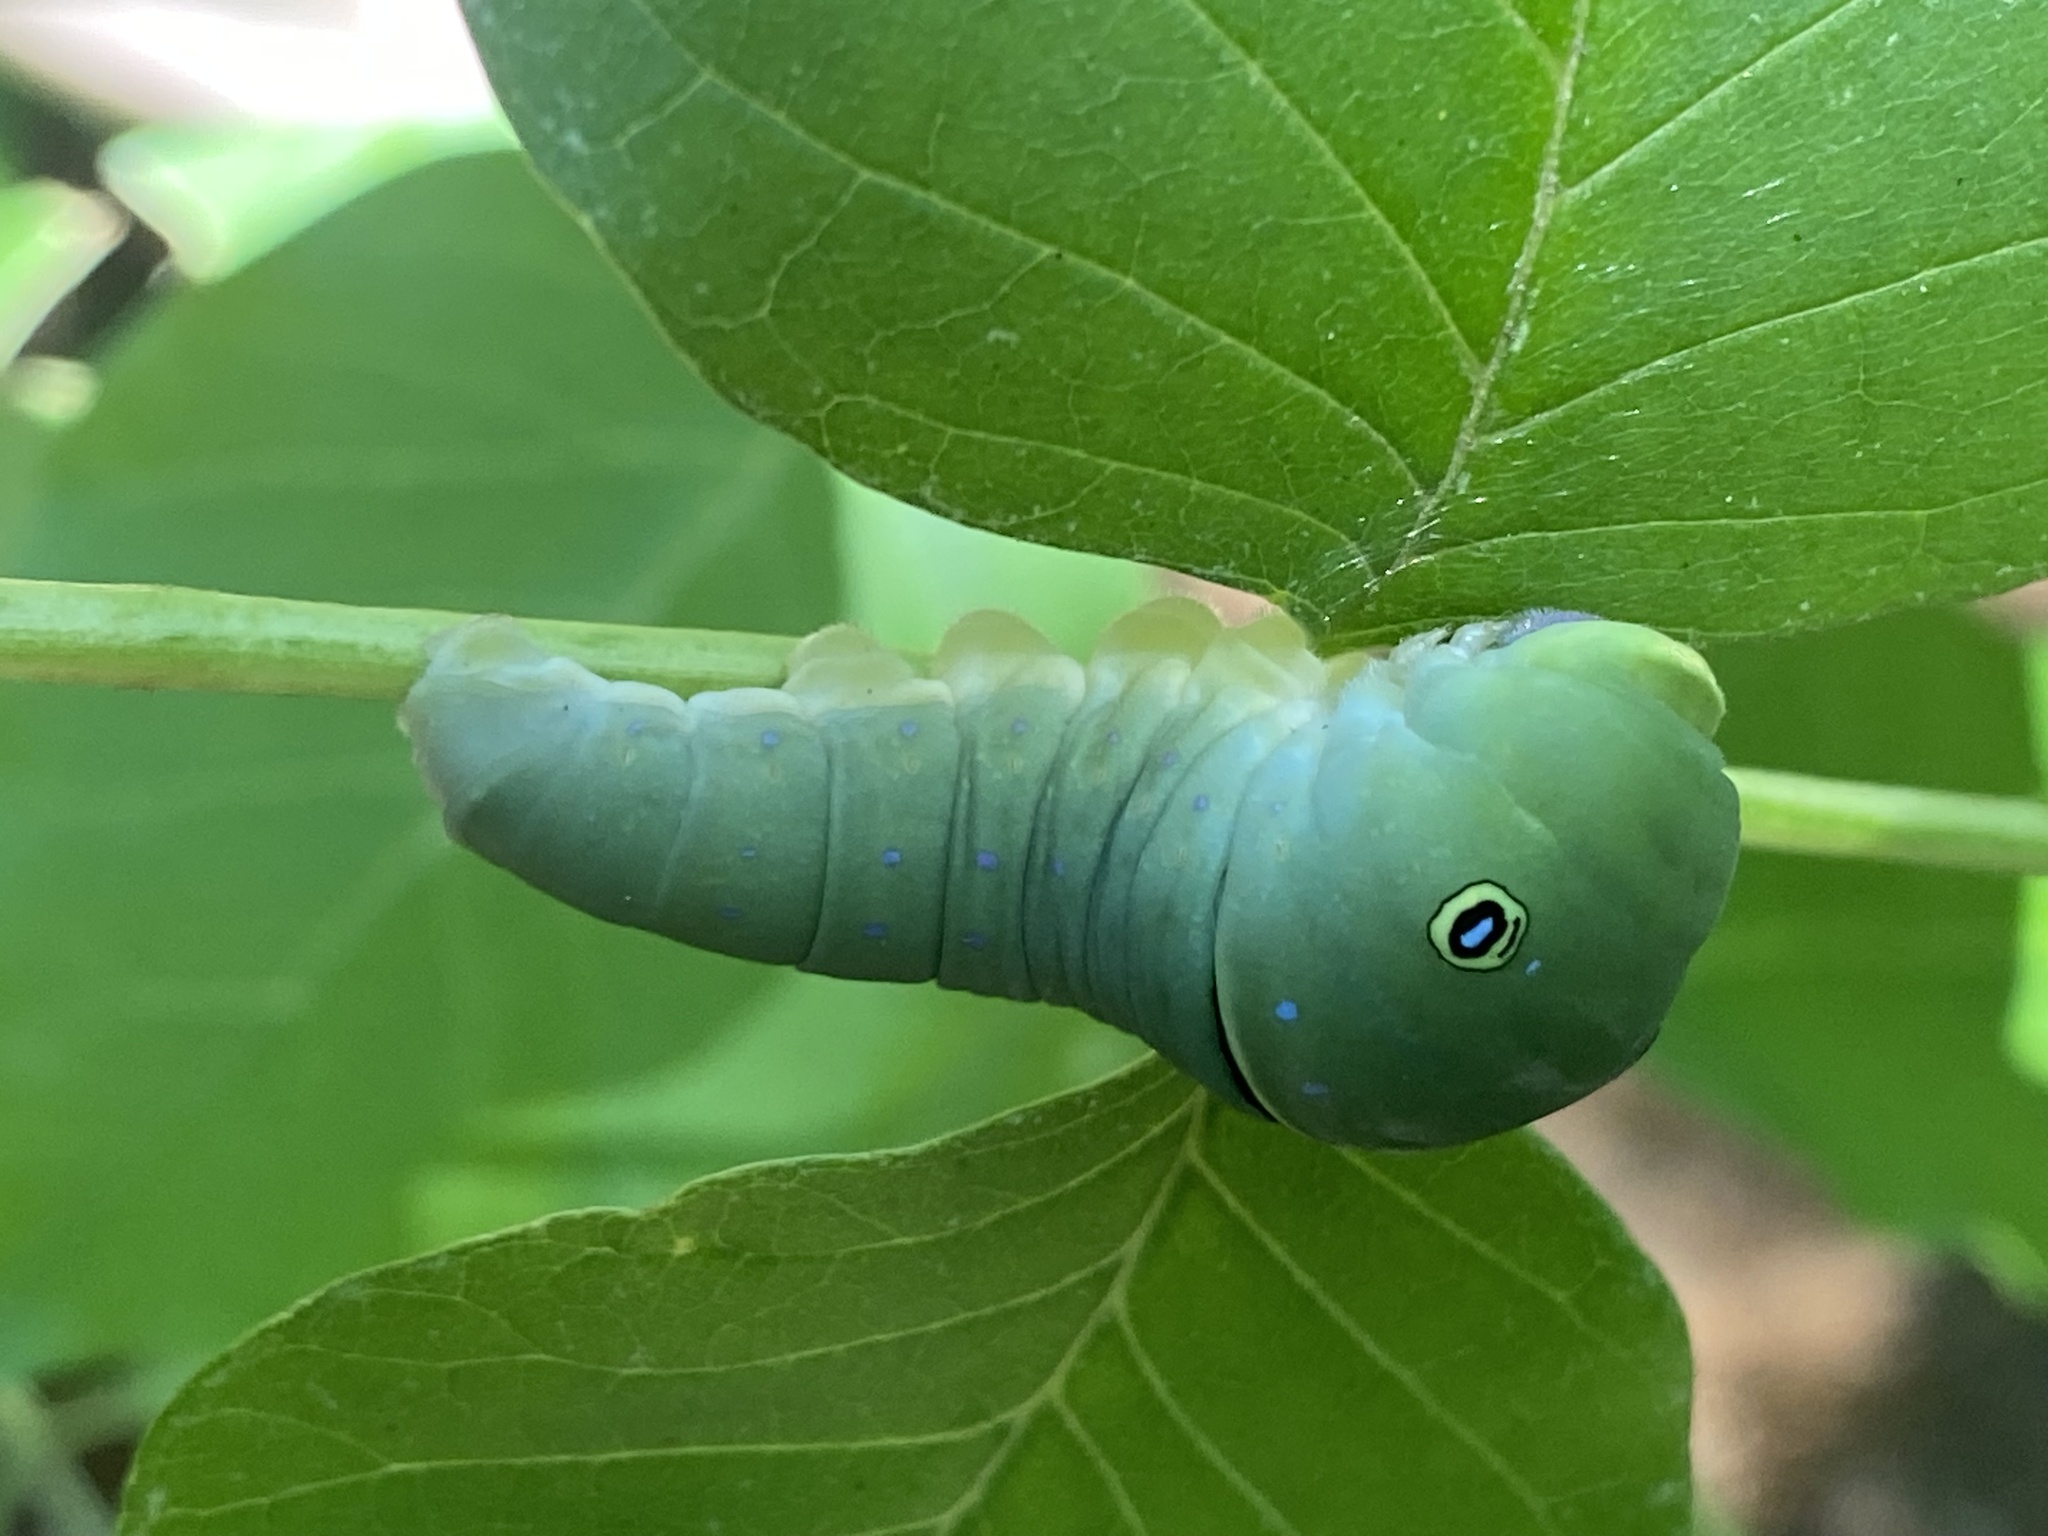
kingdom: Animalia
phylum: Arthropoda
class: Insecta
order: Lepidoptera
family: Papilionidae
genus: Papilio
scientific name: Papilio glaucus
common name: Tiger swallowtail
